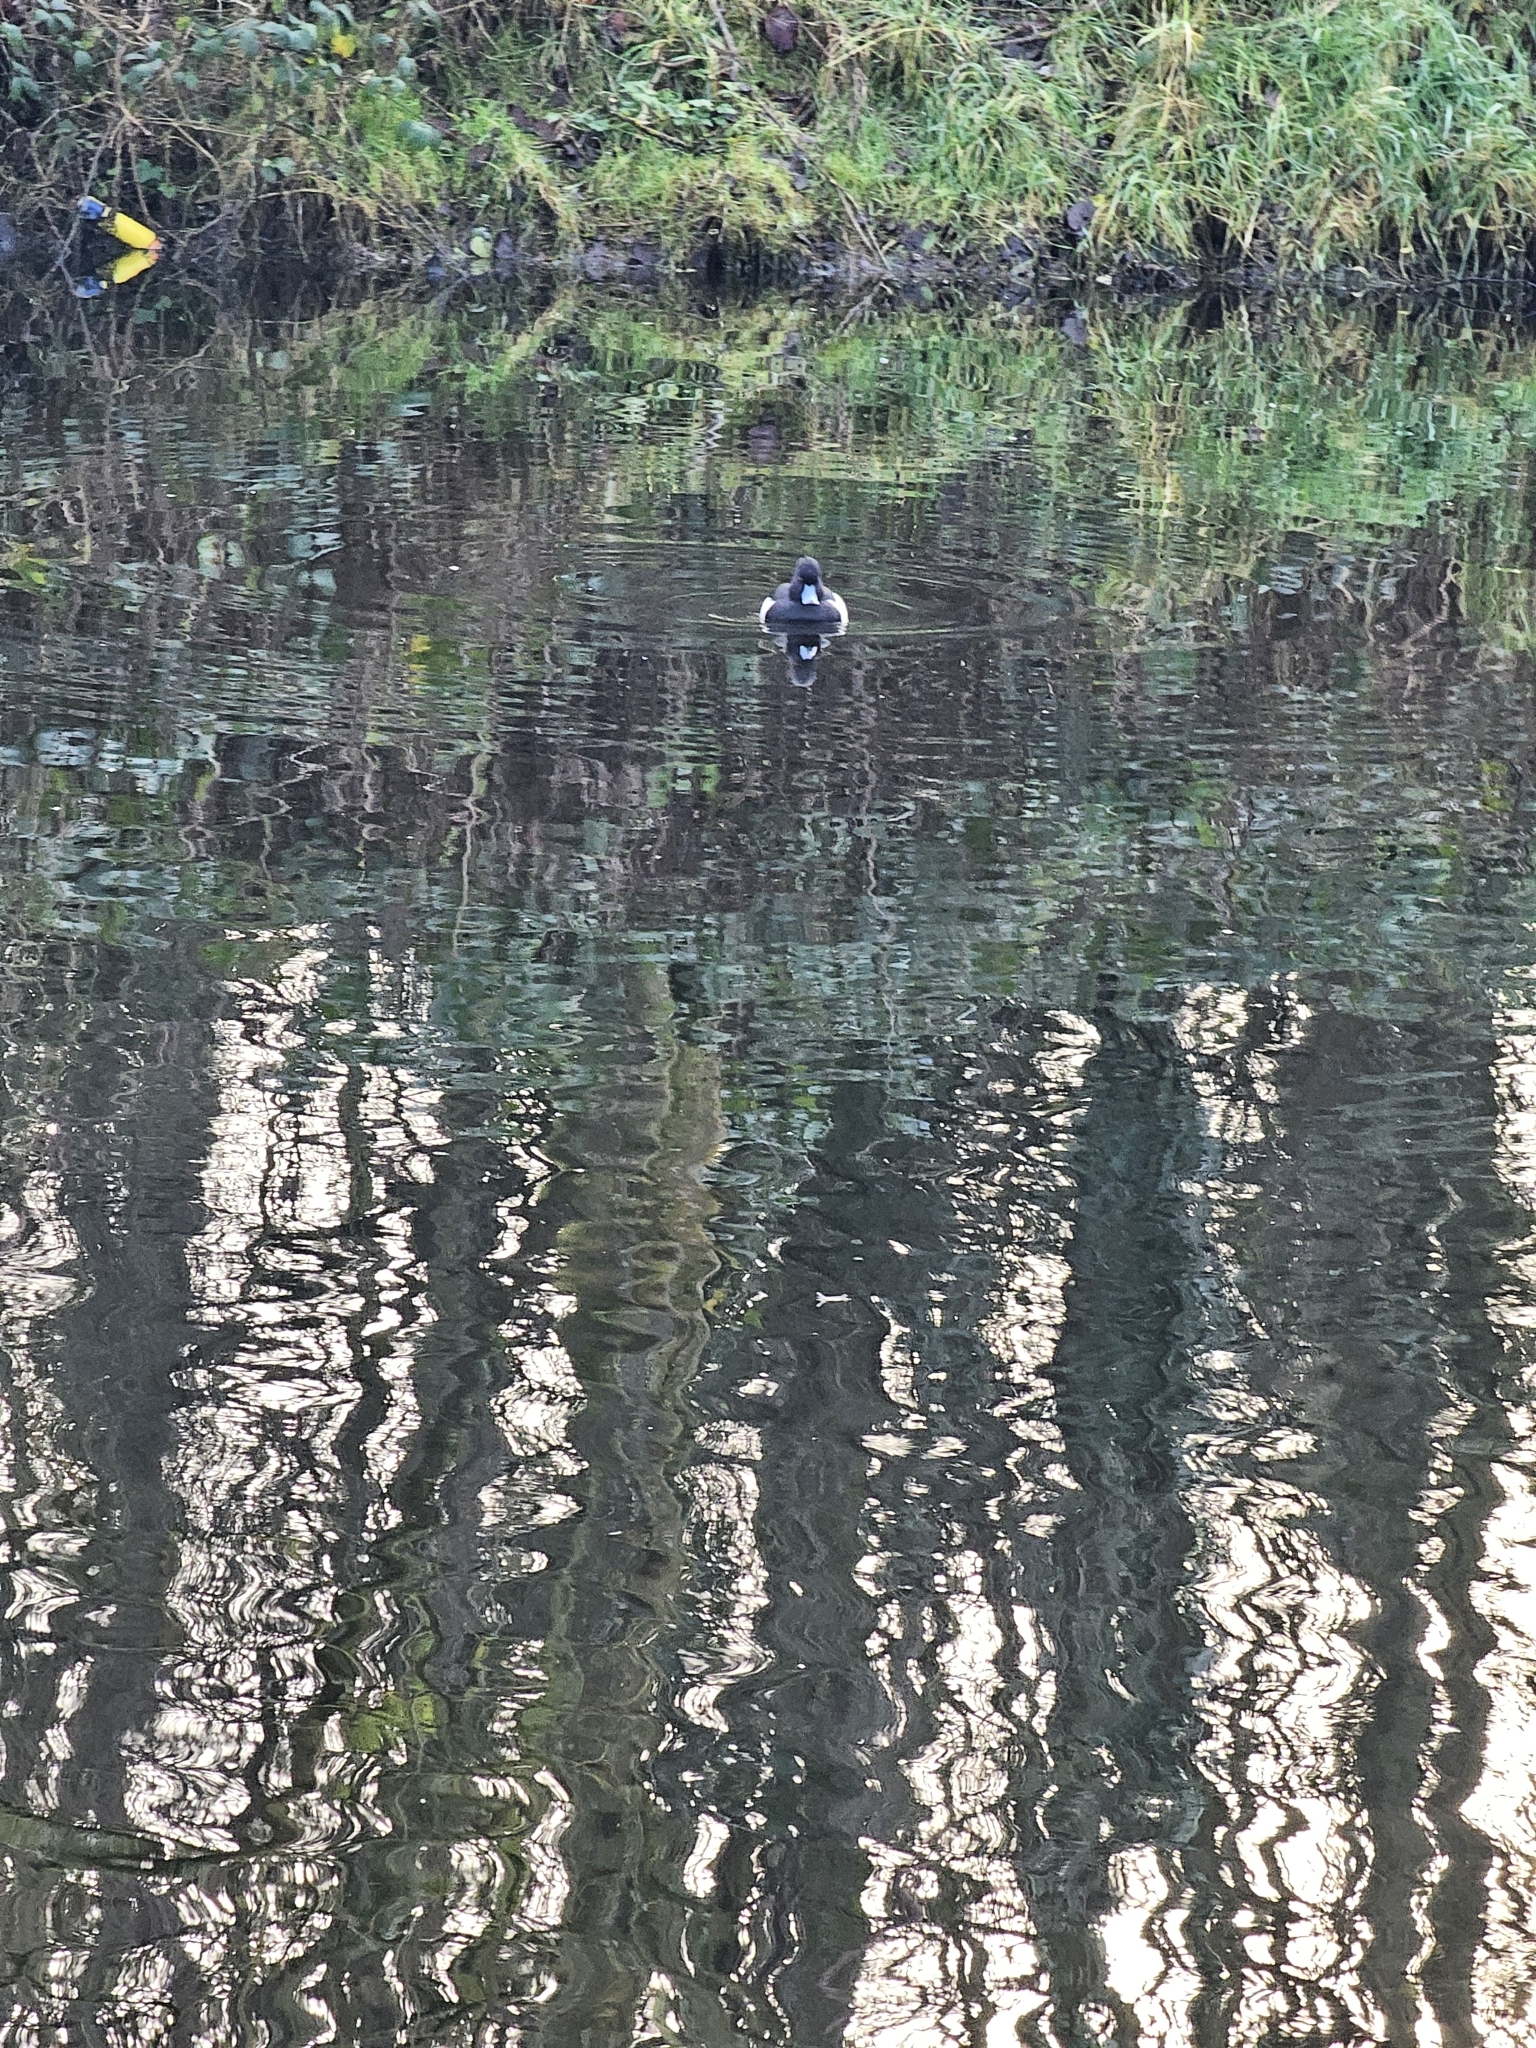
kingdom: Animalia
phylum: Chordata
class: Aves
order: Anseriformes
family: Anatidae
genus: Aythya
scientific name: Aythya fuligula
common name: Tufted duck
